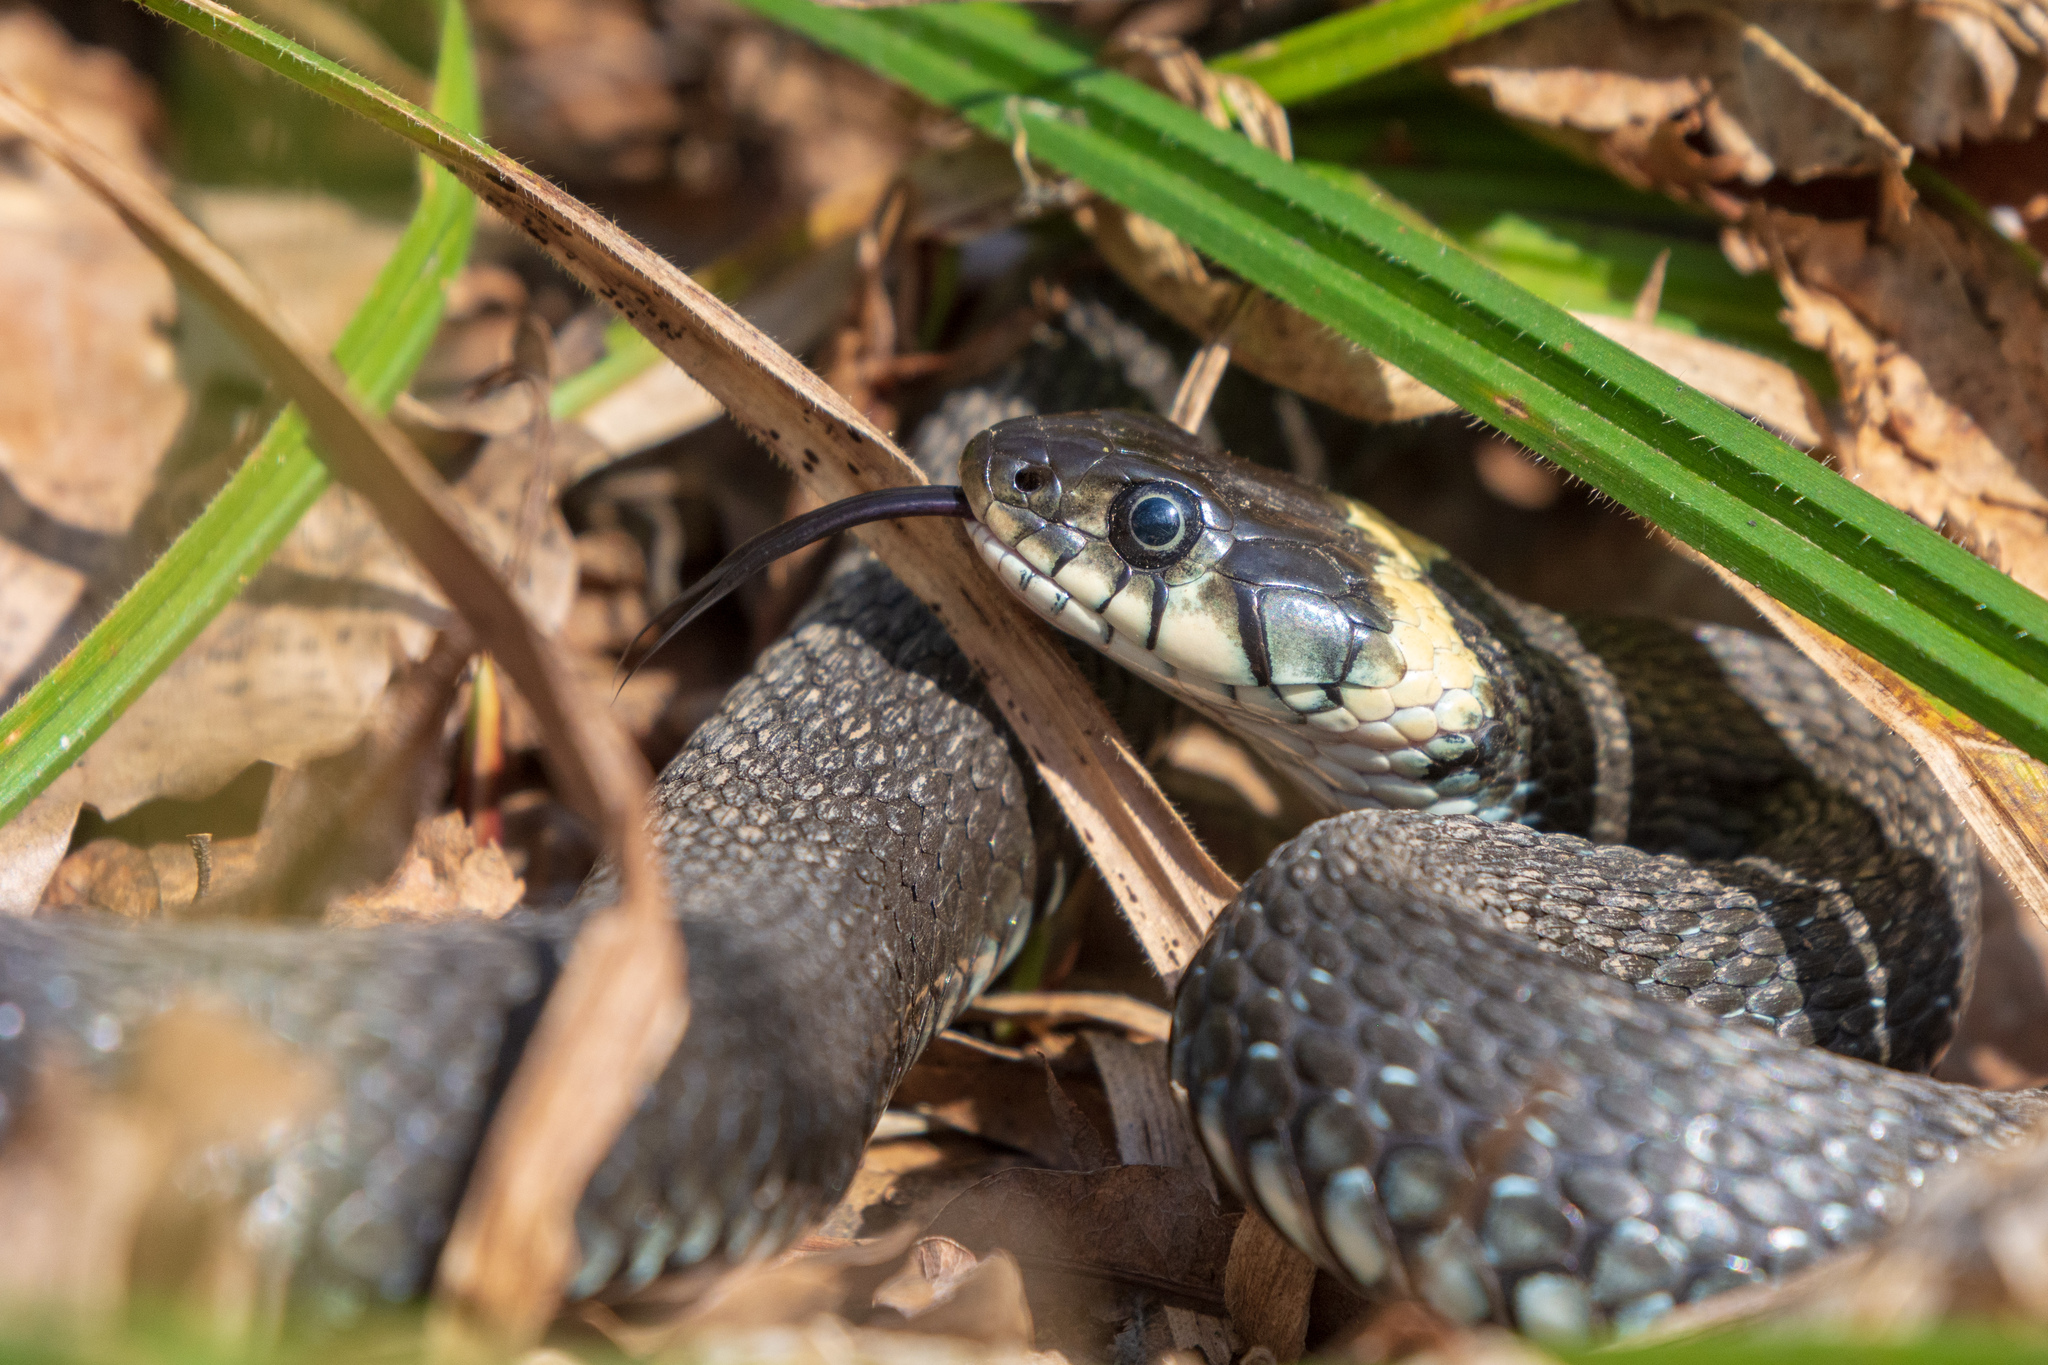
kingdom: Animalia
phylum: Chordata
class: Squamata
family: Colubridae
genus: Natrix
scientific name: Natrix natrix
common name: Grass snake
